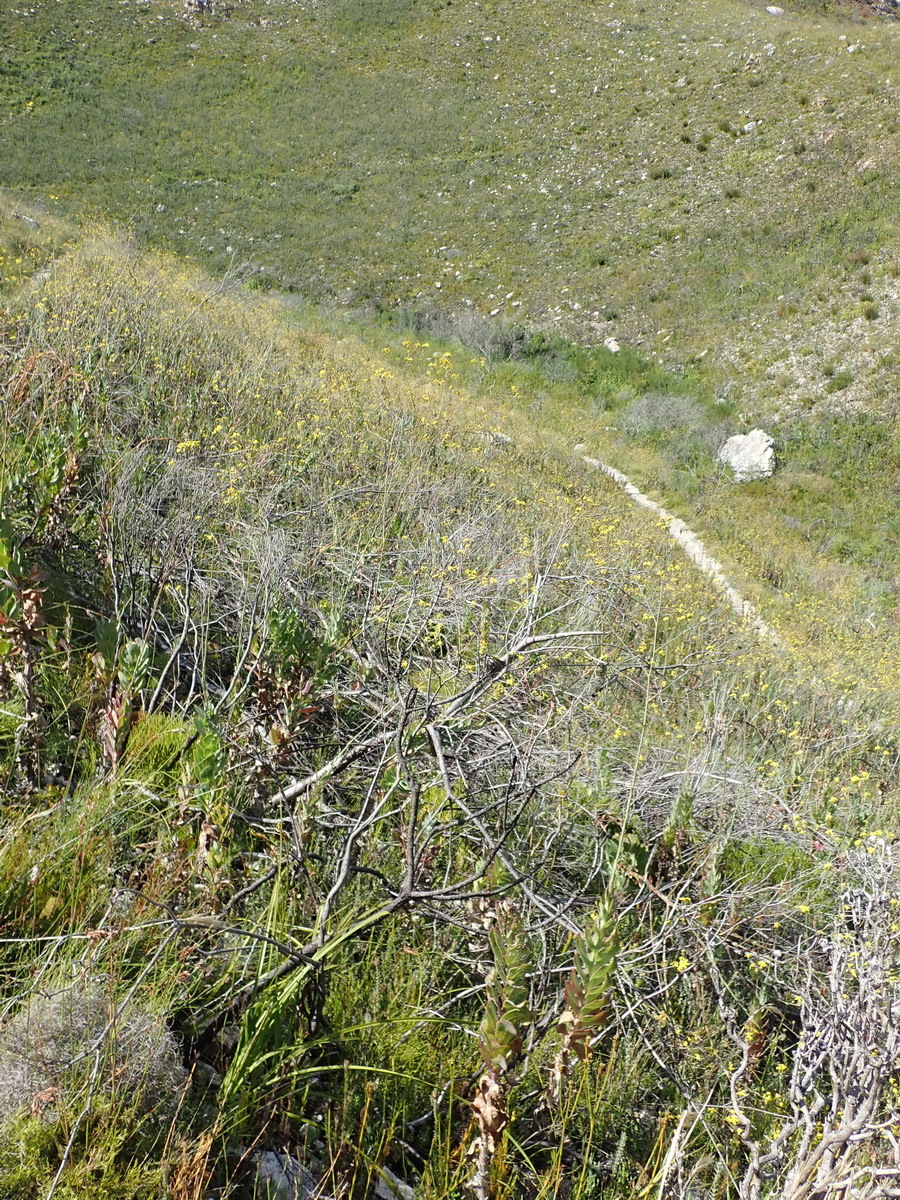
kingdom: Plantae
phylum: Tracheophyta
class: Magnoliopsida
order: Asterales
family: Asteraceae
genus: Othonna
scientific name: Othonna quinquedentata
